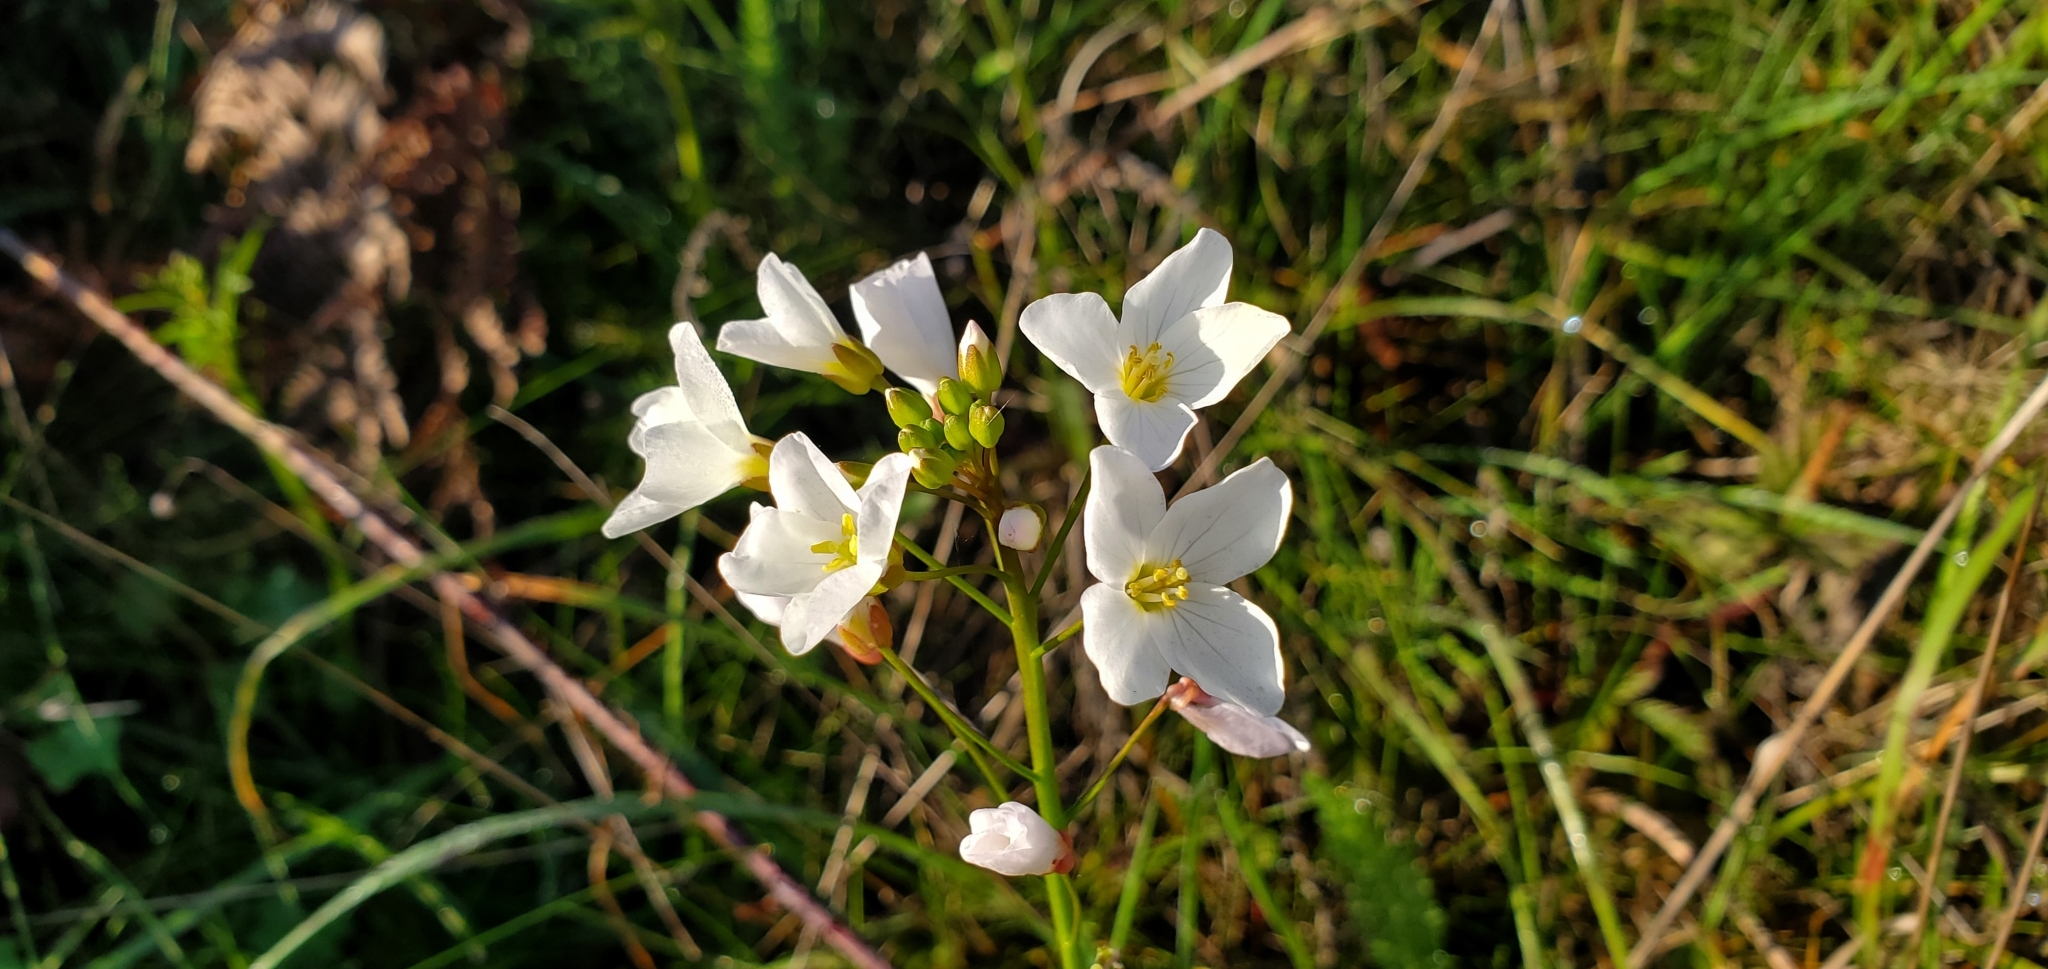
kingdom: Plantae
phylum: Tracheophyta
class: Magnoliopsida
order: Brassicales
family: Brassicaceae
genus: Cardamine
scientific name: Cardamine californica
